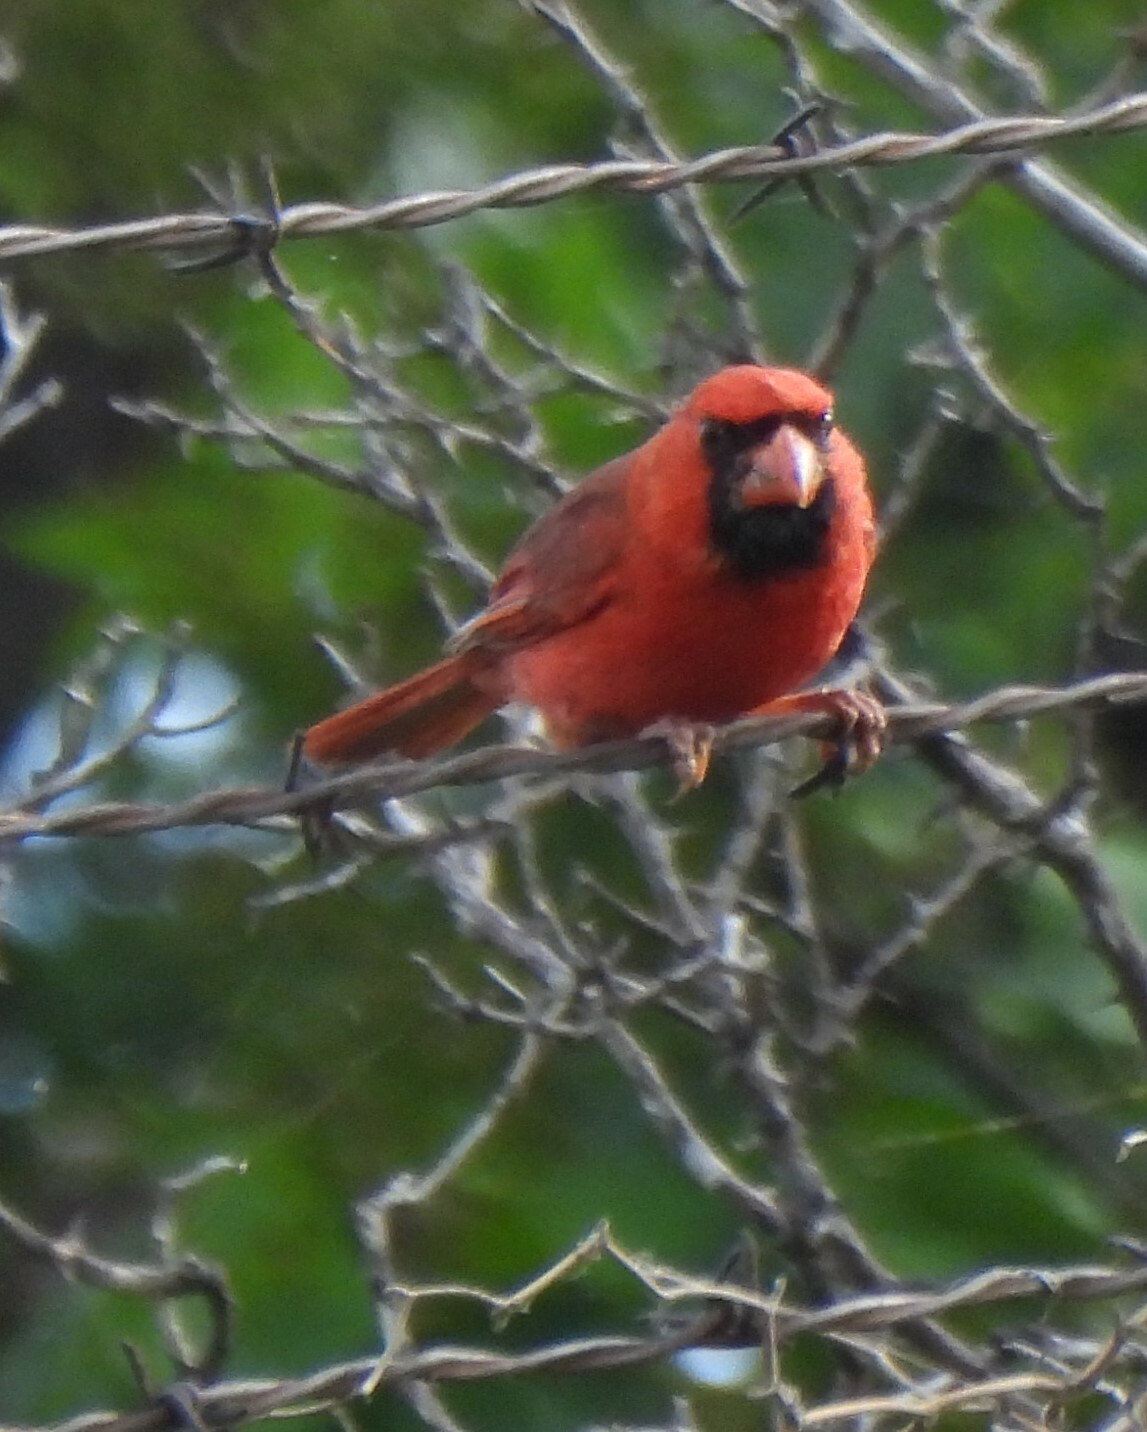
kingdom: Animalia
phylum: Chordata
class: Aves
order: Passeriformes
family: Cardinalidae
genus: Cardinalis
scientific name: Cardinalis cardinalis
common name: Northern cardinal
